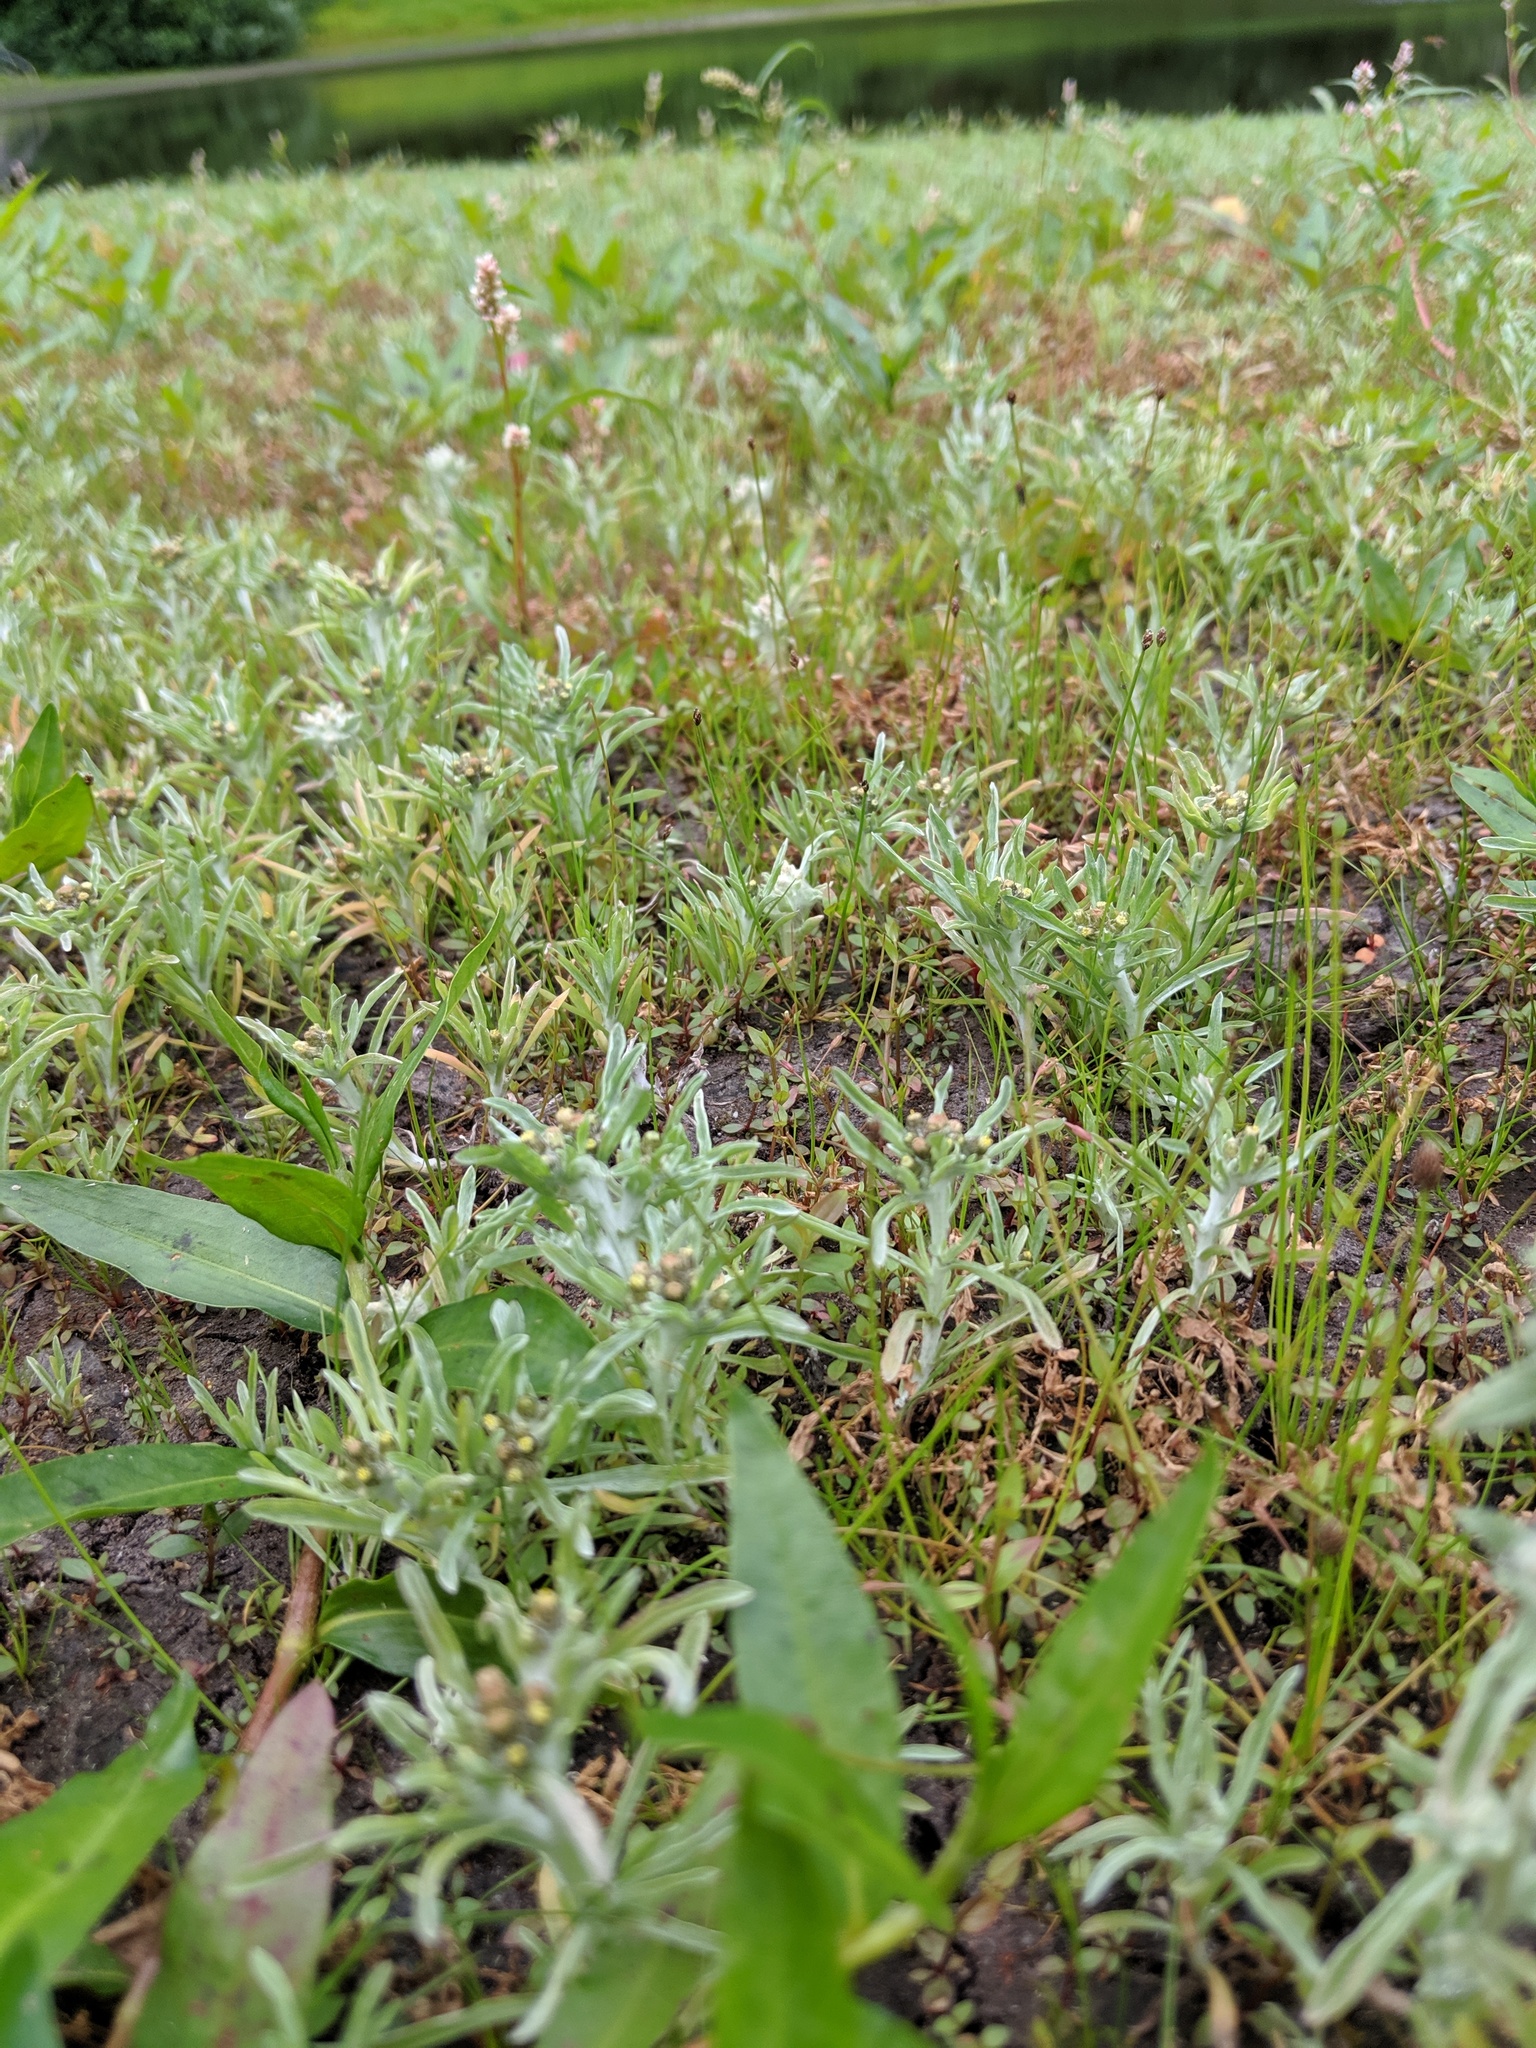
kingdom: Plantae
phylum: Tracheophyta
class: Magnoliopsida
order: Asterales
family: Asteraceae
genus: Gnaphalium
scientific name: Gnaphalium palustre
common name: Western marsh cudweed
